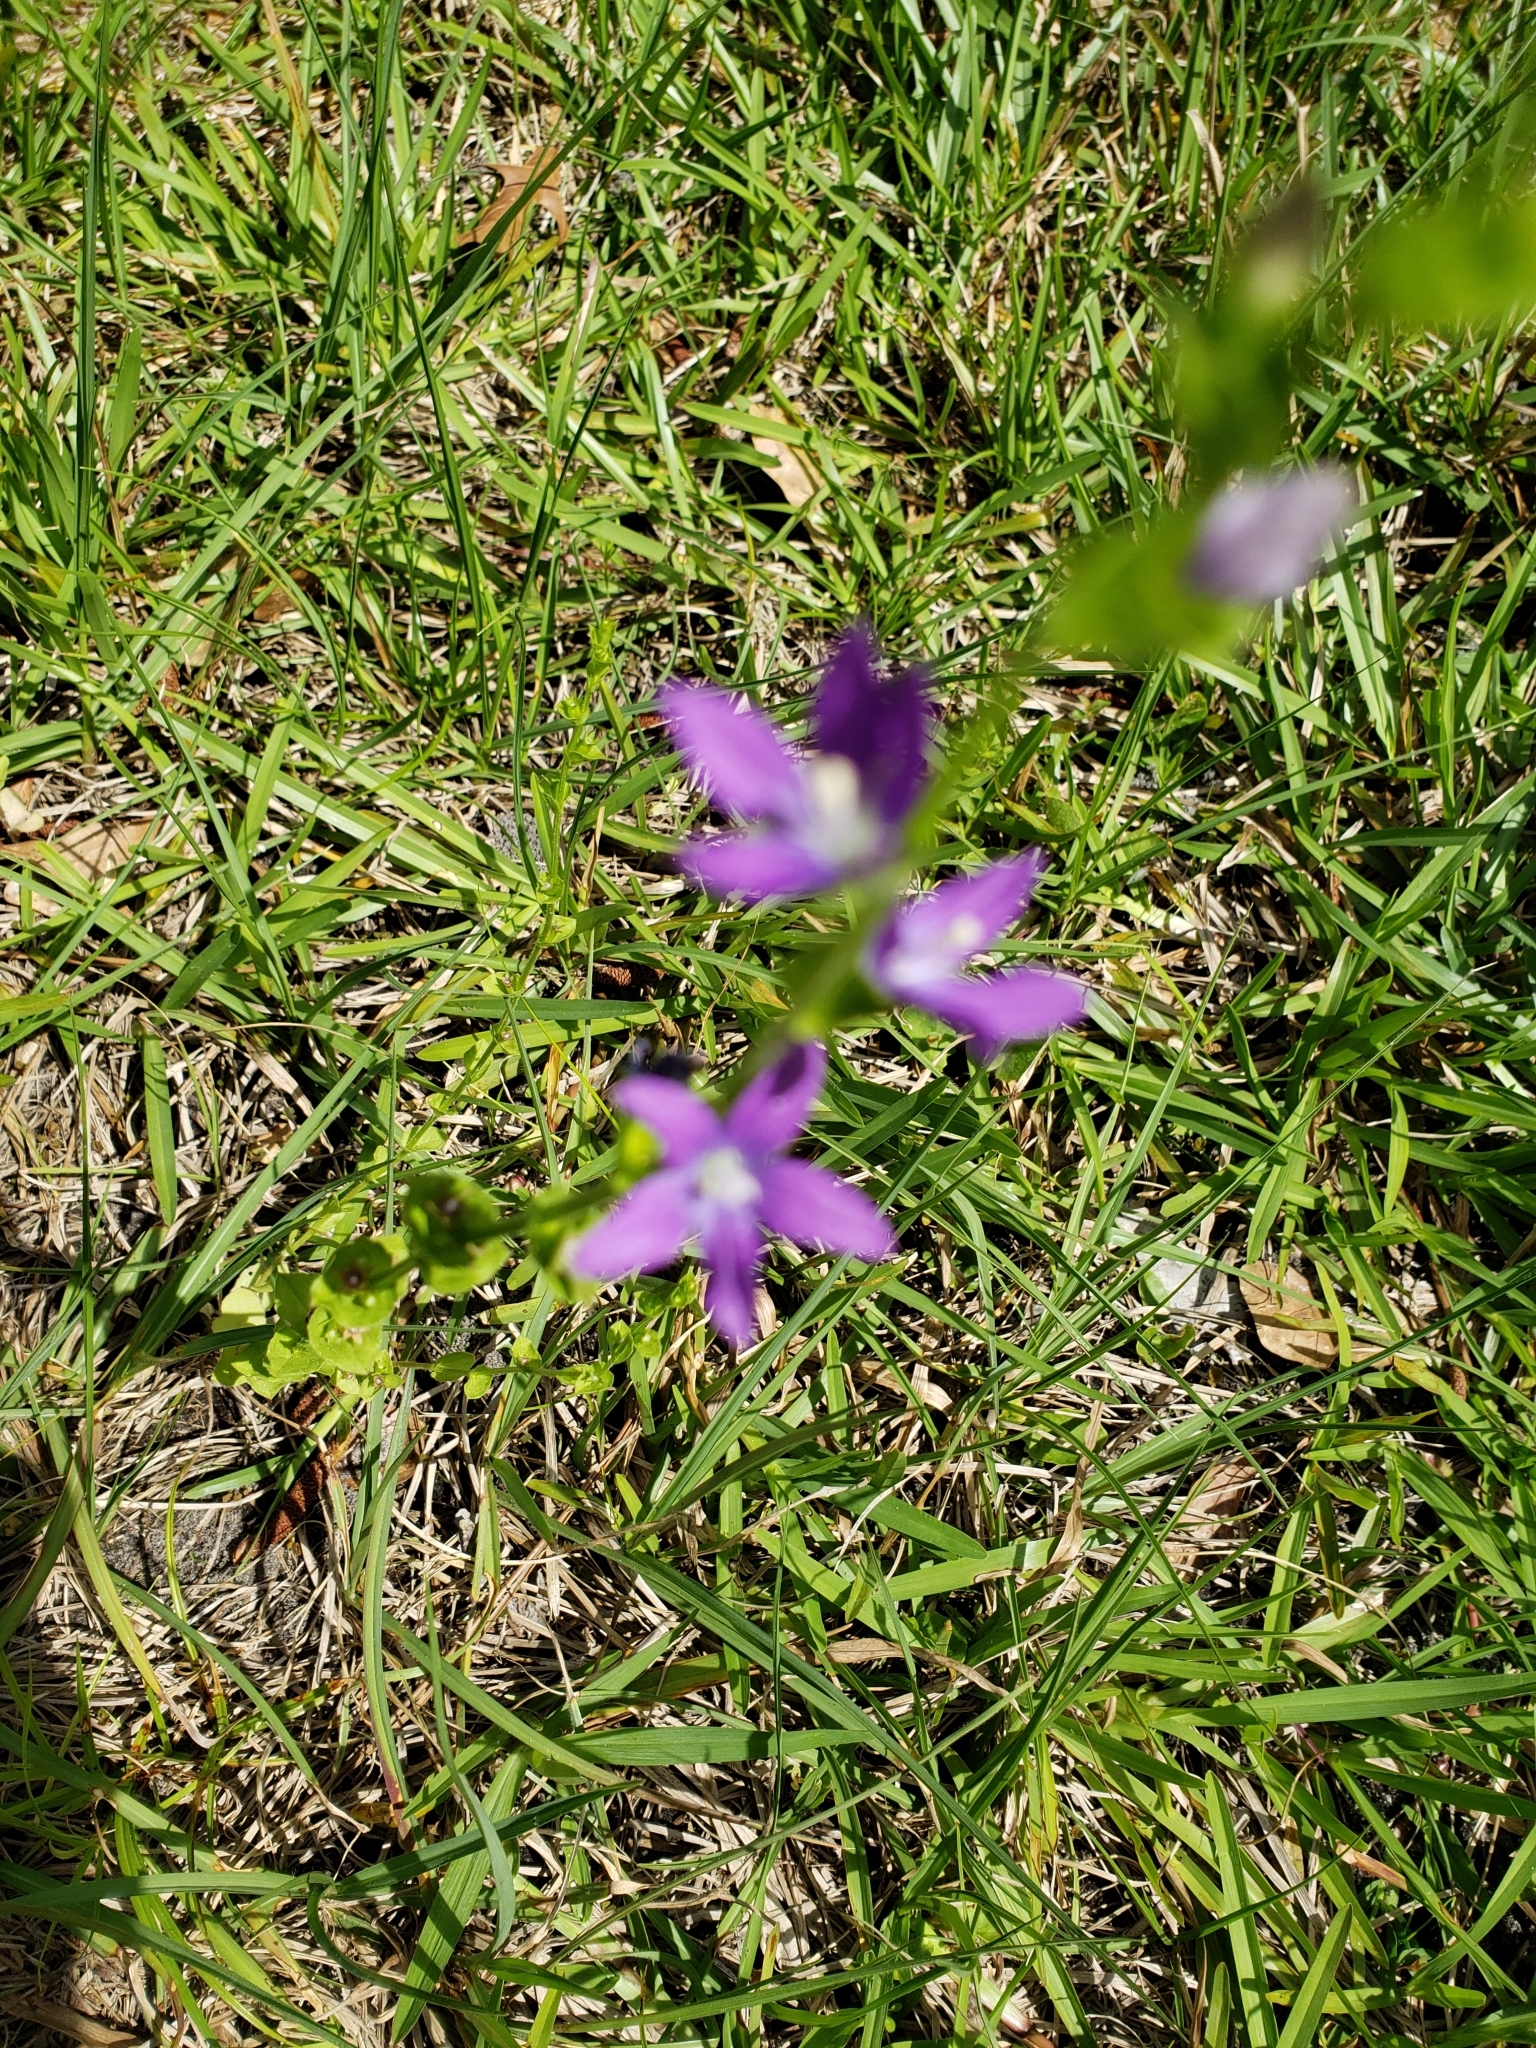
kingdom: Plantae
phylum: Tracheophyta
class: Magnoliopsida
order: Asterales
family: Campanulaceae
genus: Triodanis
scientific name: Triodanis perfoliata
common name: Clasping venus' looking-glass
